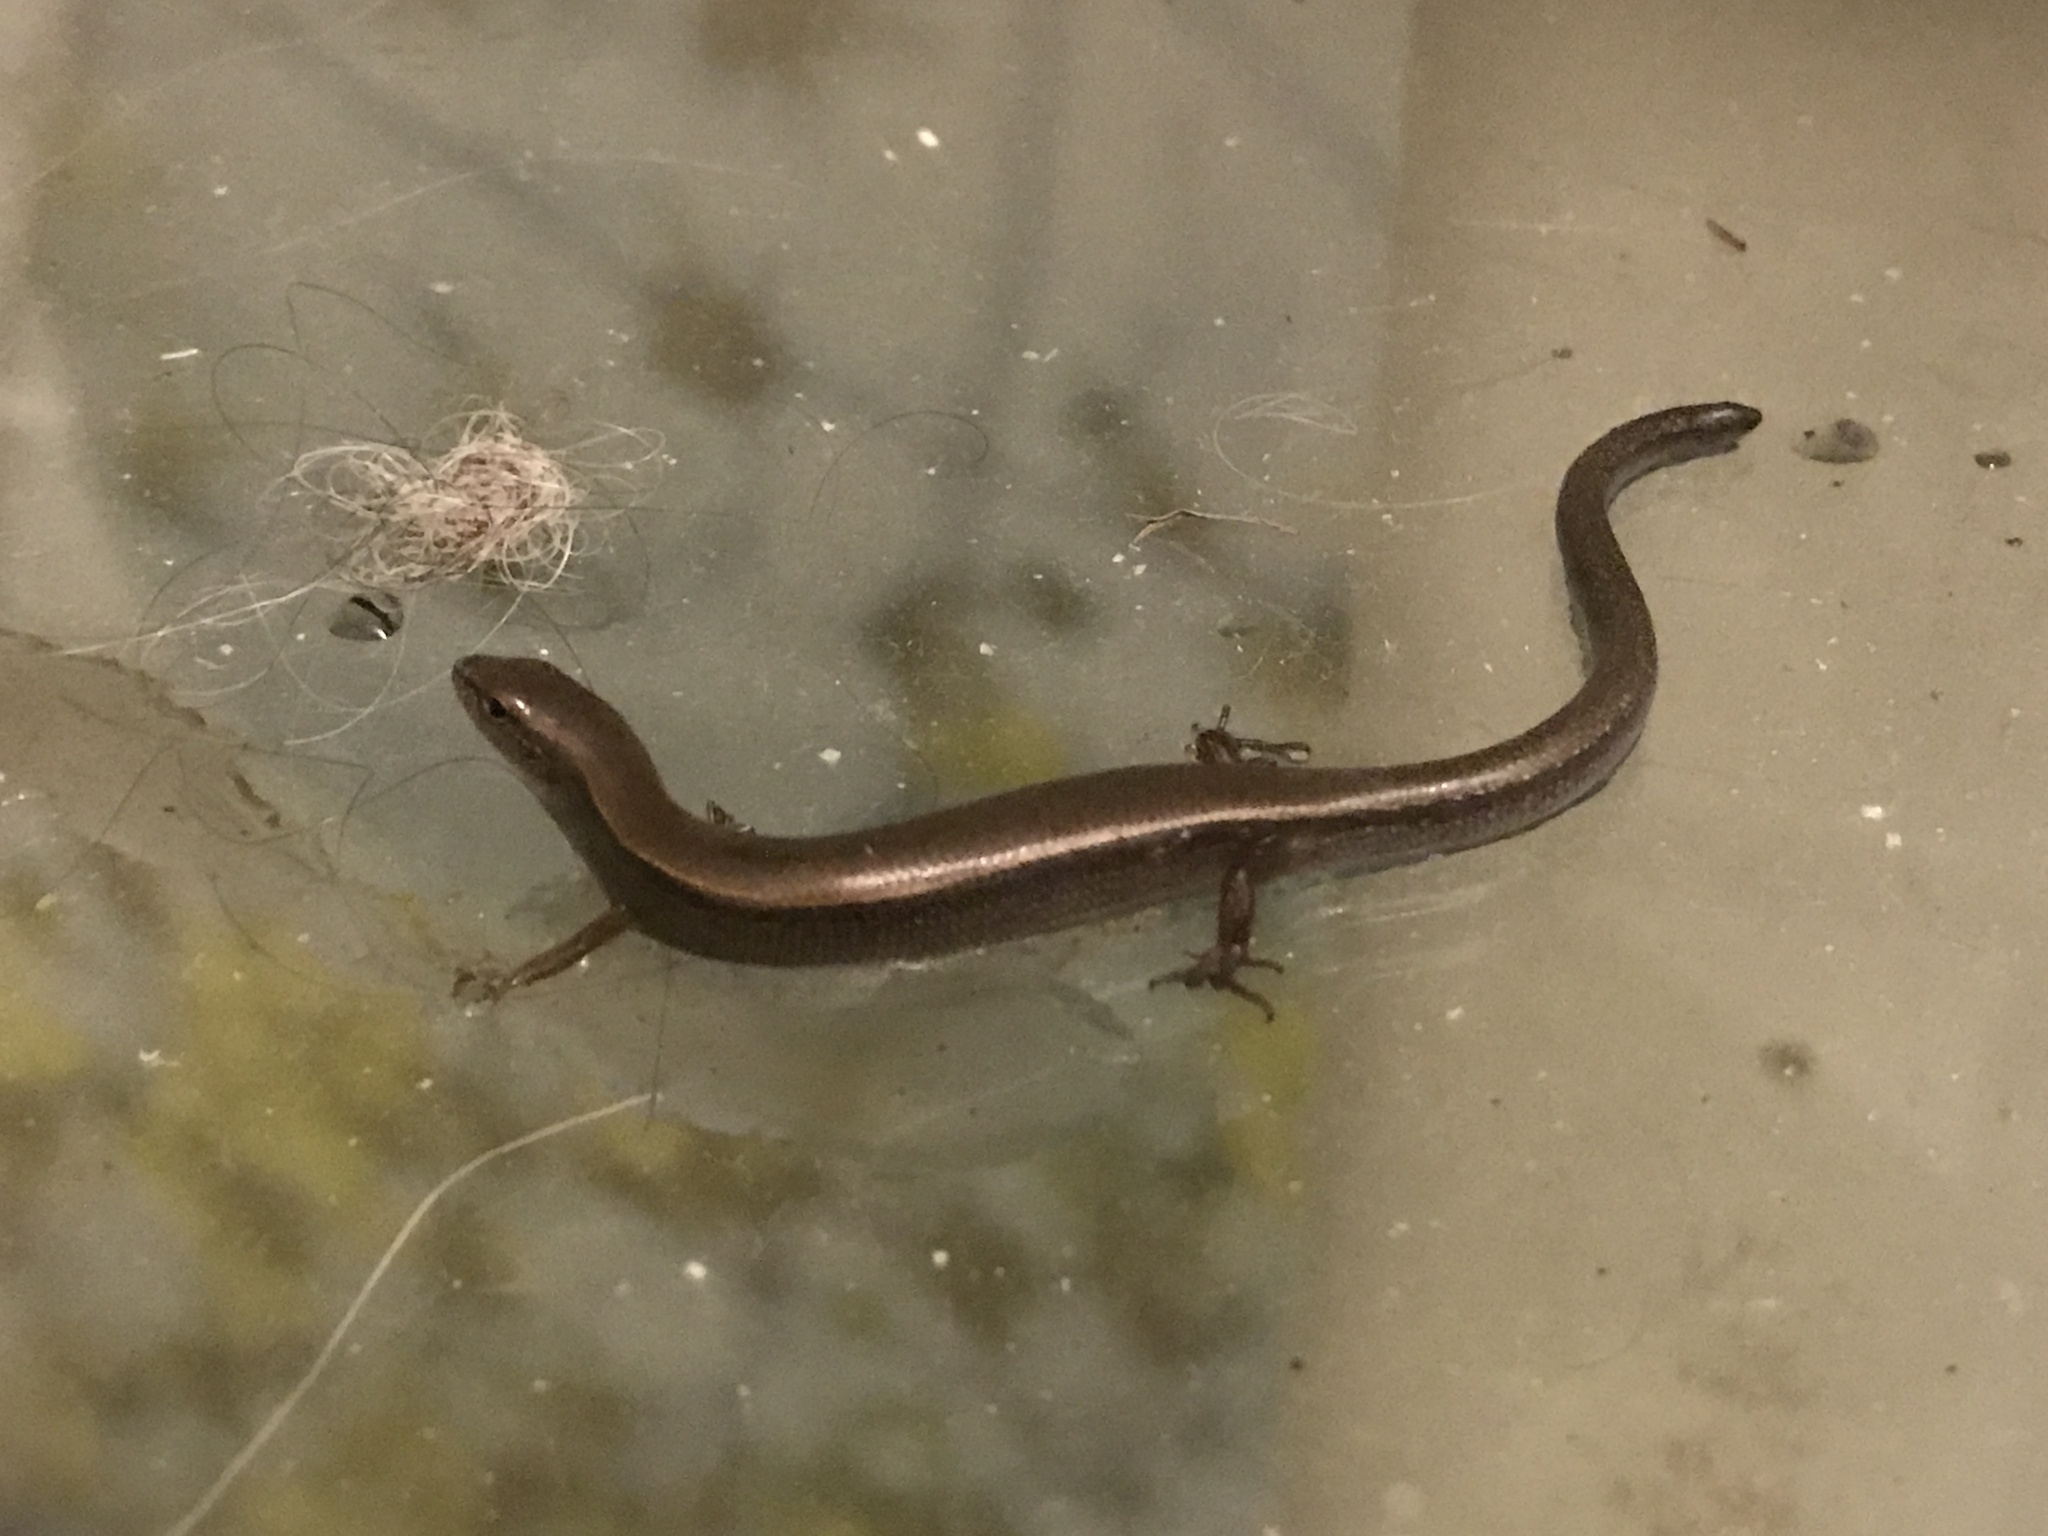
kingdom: Animalia
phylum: Chordata
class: Squamata
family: Scincidae
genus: Scincella
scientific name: Scincella lateralis
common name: Ground skink
